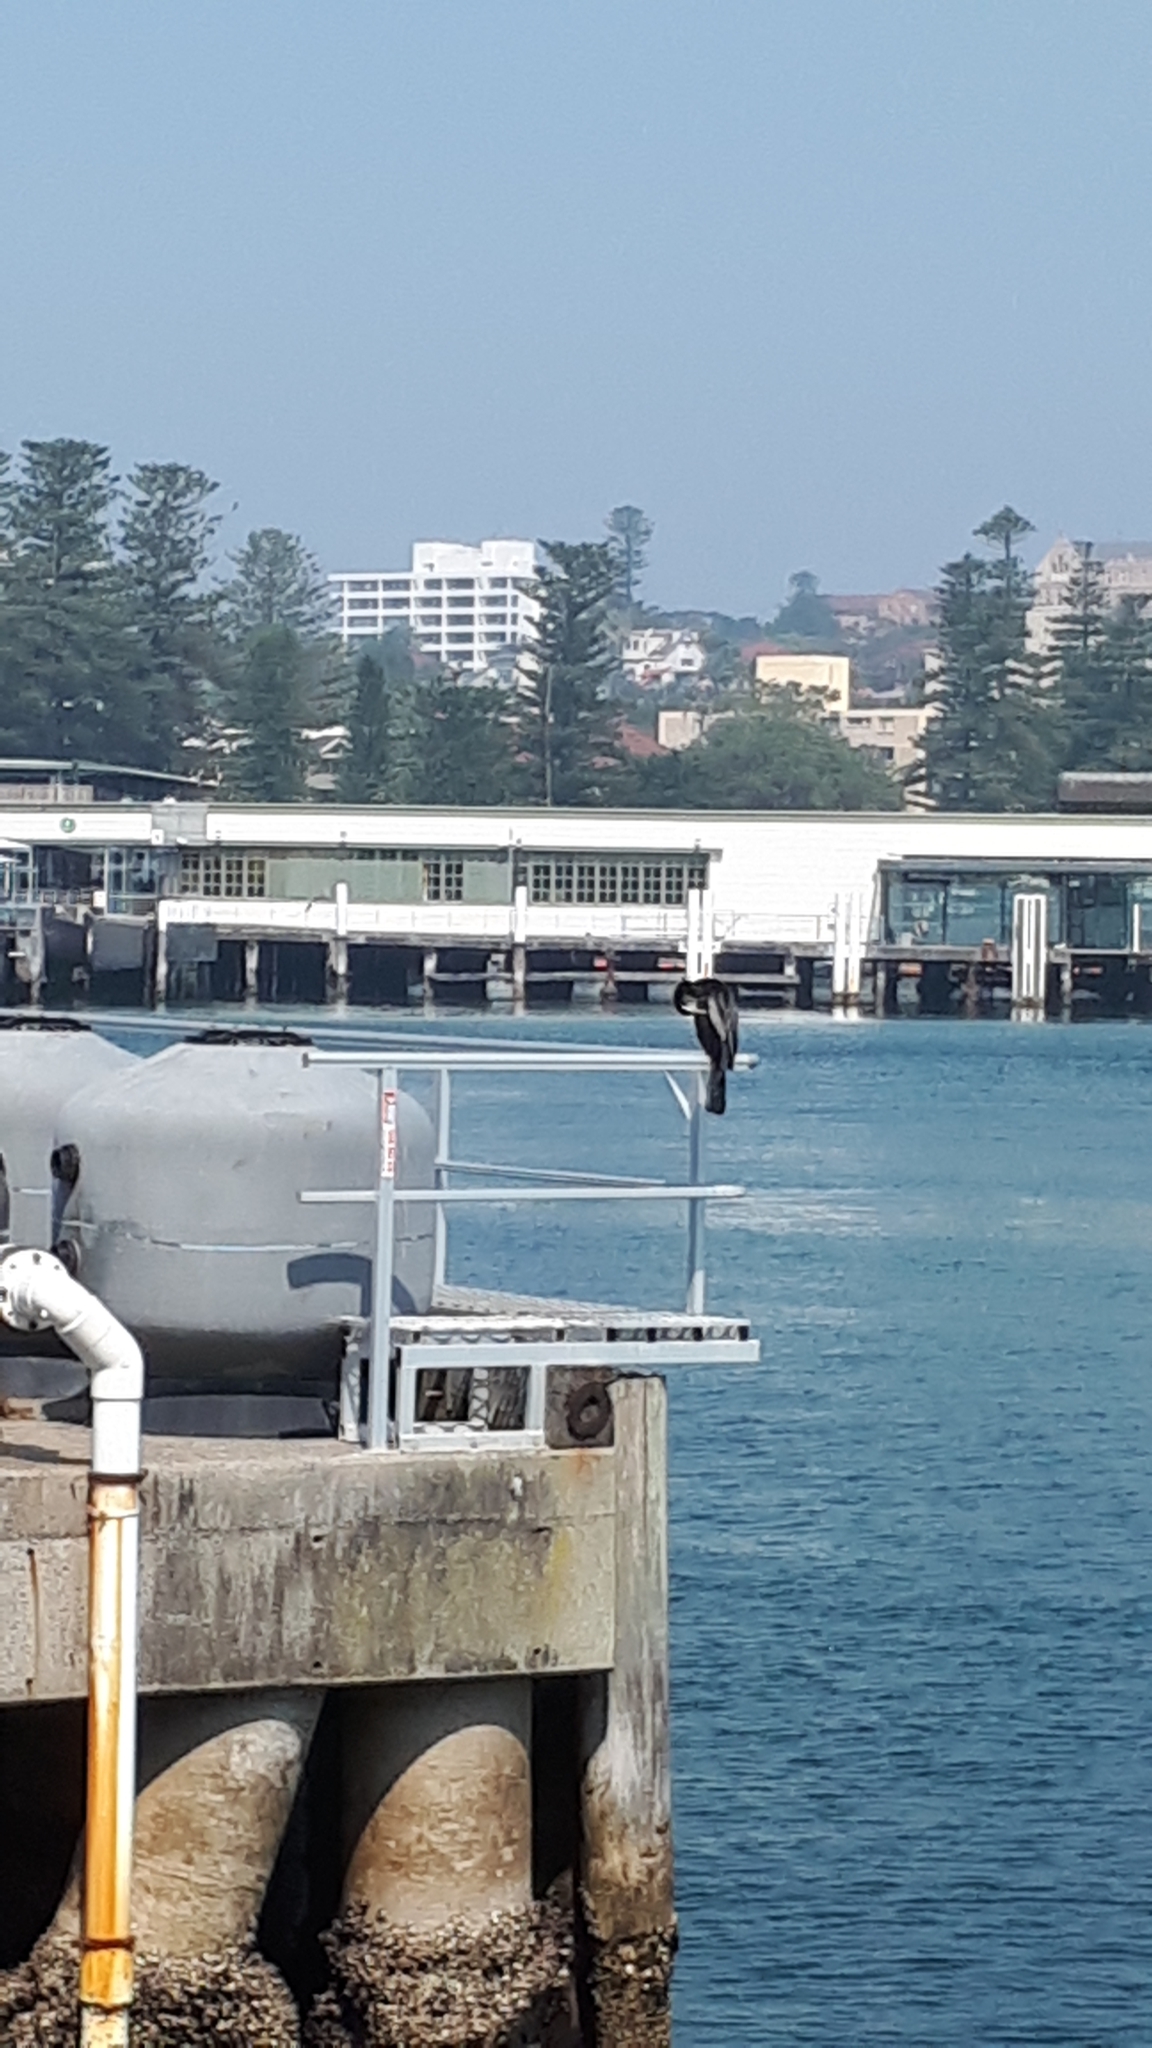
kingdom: Animalia
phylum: Chordata
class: Aves
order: Suliformes
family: Anhingidae
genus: Anhinga
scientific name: Anhinga novaehollandiae
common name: Australasian darter
